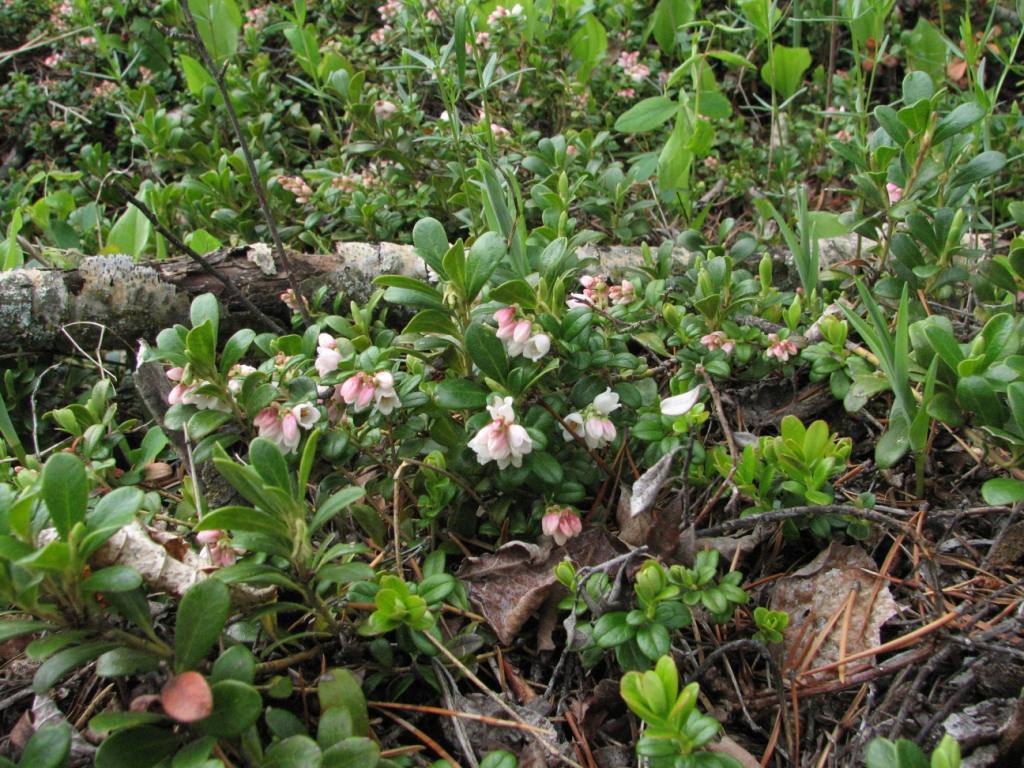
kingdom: Plantae
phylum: Tracheophyta
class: Magnoliopsida
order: Ericales
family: Ericaceae
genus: Vaccinium
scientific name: Vaccinium vitis-idaea
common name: Cowberry
